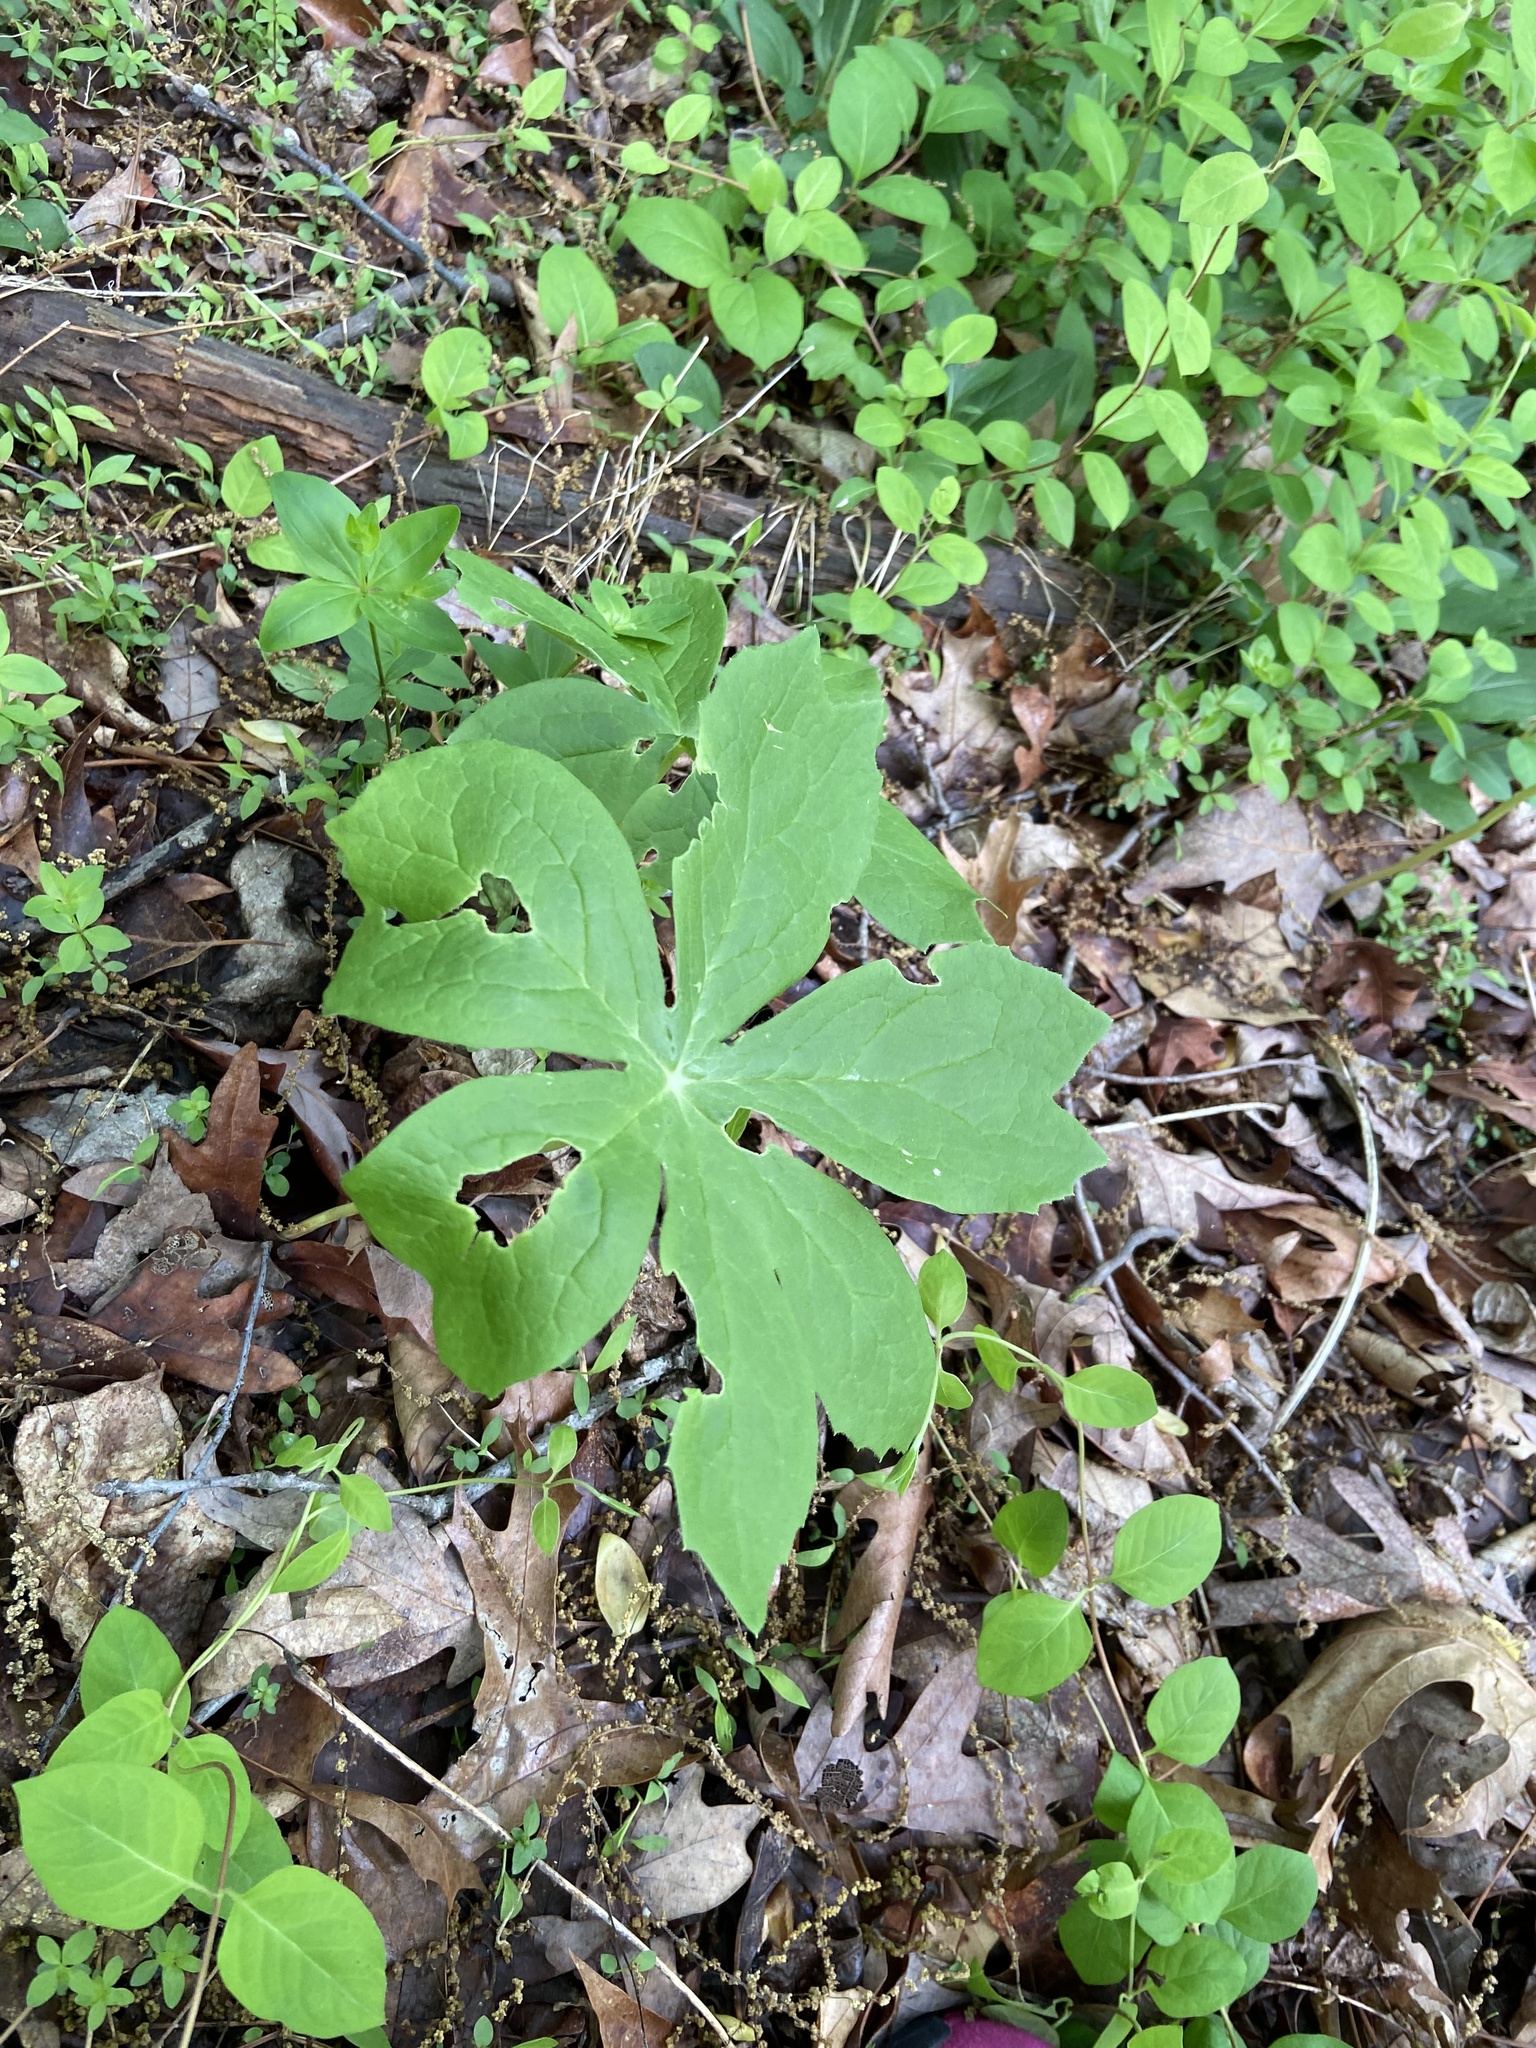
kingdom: Plantae
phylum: Tracheophyta
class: Magnoliopsida
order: Ranunculales
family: Berberidaceae
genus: Podophyllum
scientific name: Podophyllum peltatum
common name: Wild mandrake
